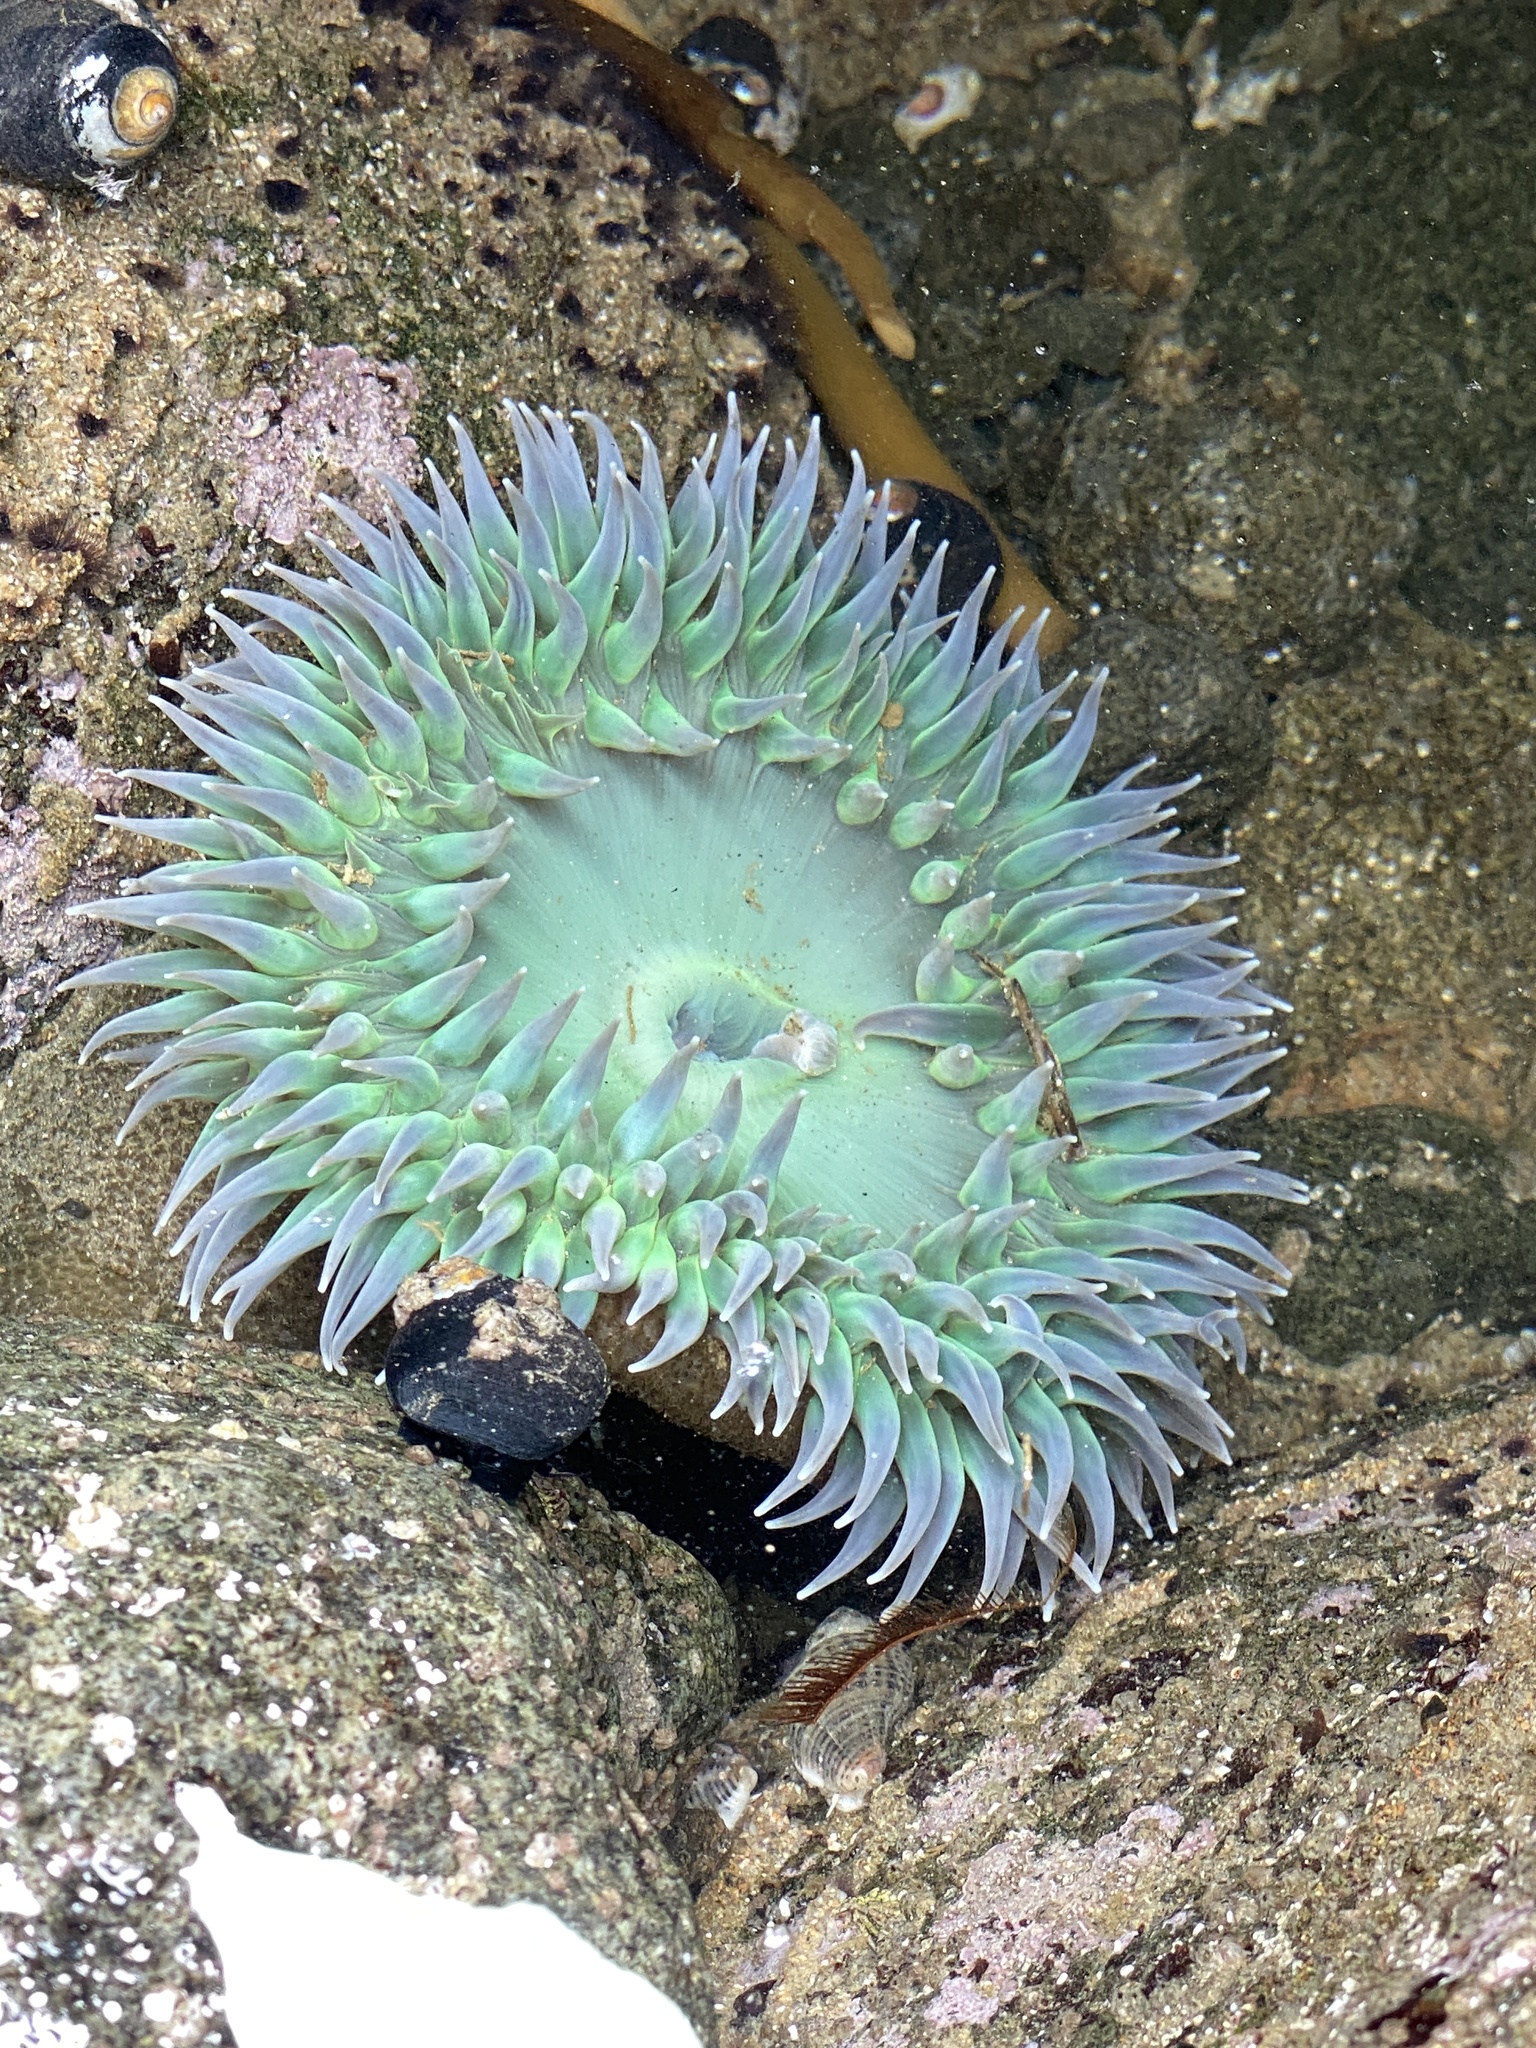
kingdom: Animalia
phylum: Cnidaria
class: Anthozoa
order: Actiniaria
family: Actiniidae
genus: Anthopleura
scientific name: Anthopleura xanthogrammica
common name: Giant green anemone
